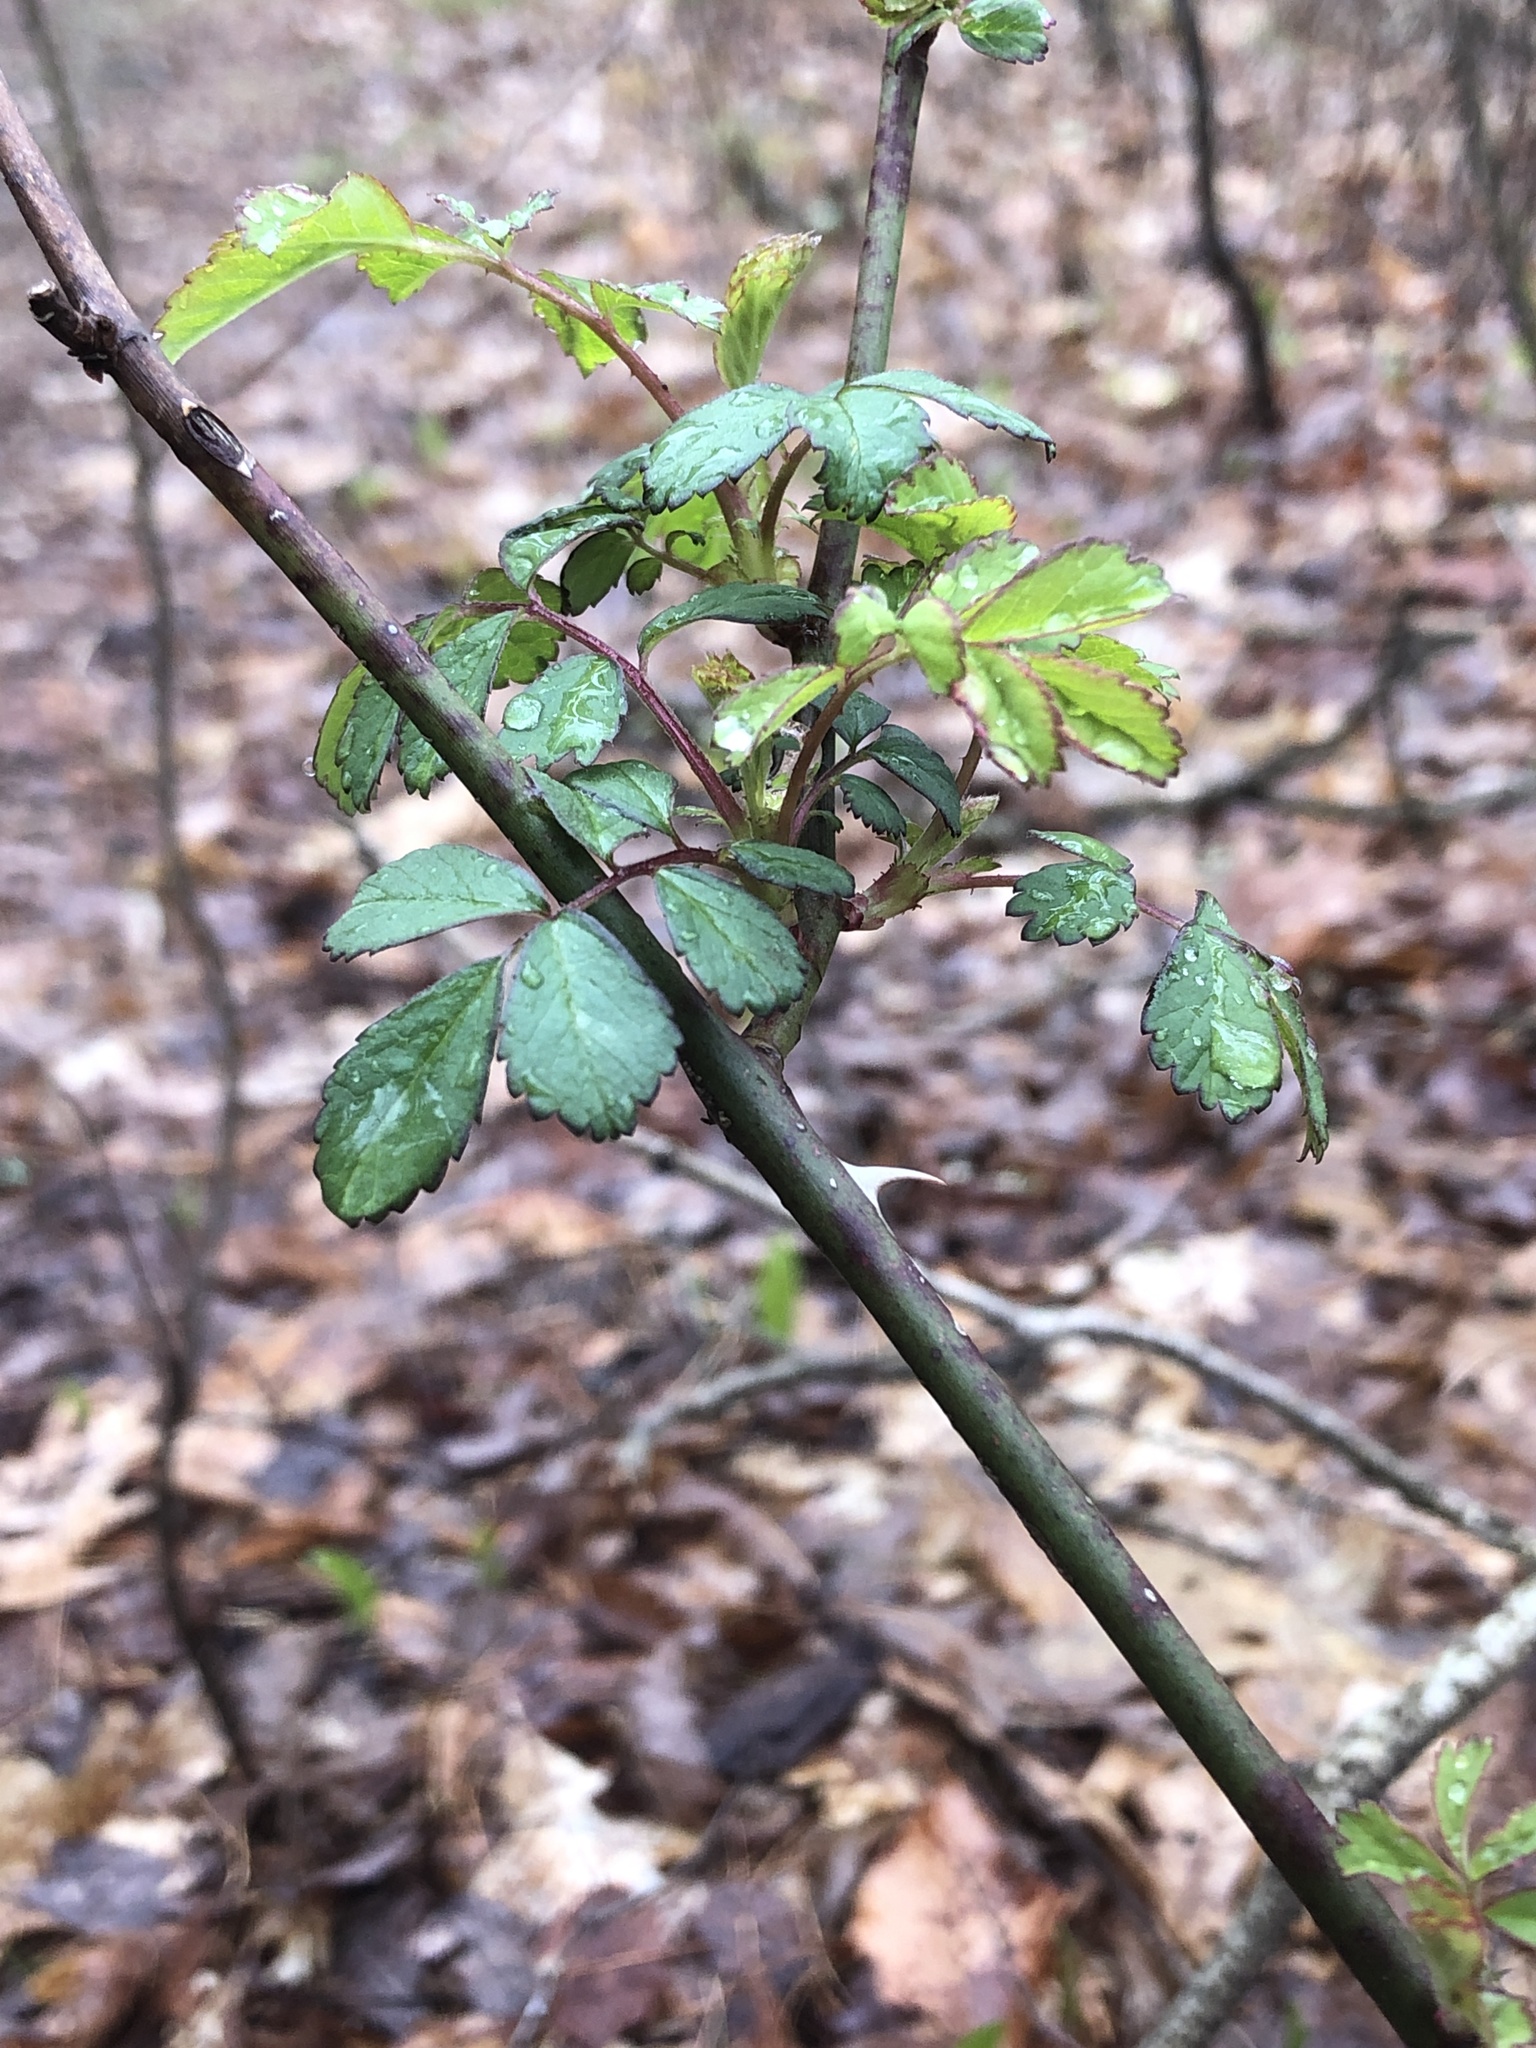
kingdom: Plantae
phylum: Tracheophyta
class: Magnoliopsida
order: Rosales
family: Rosaceae
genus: Rosa
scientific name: Rosa multiflora
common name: Multiflora rose
